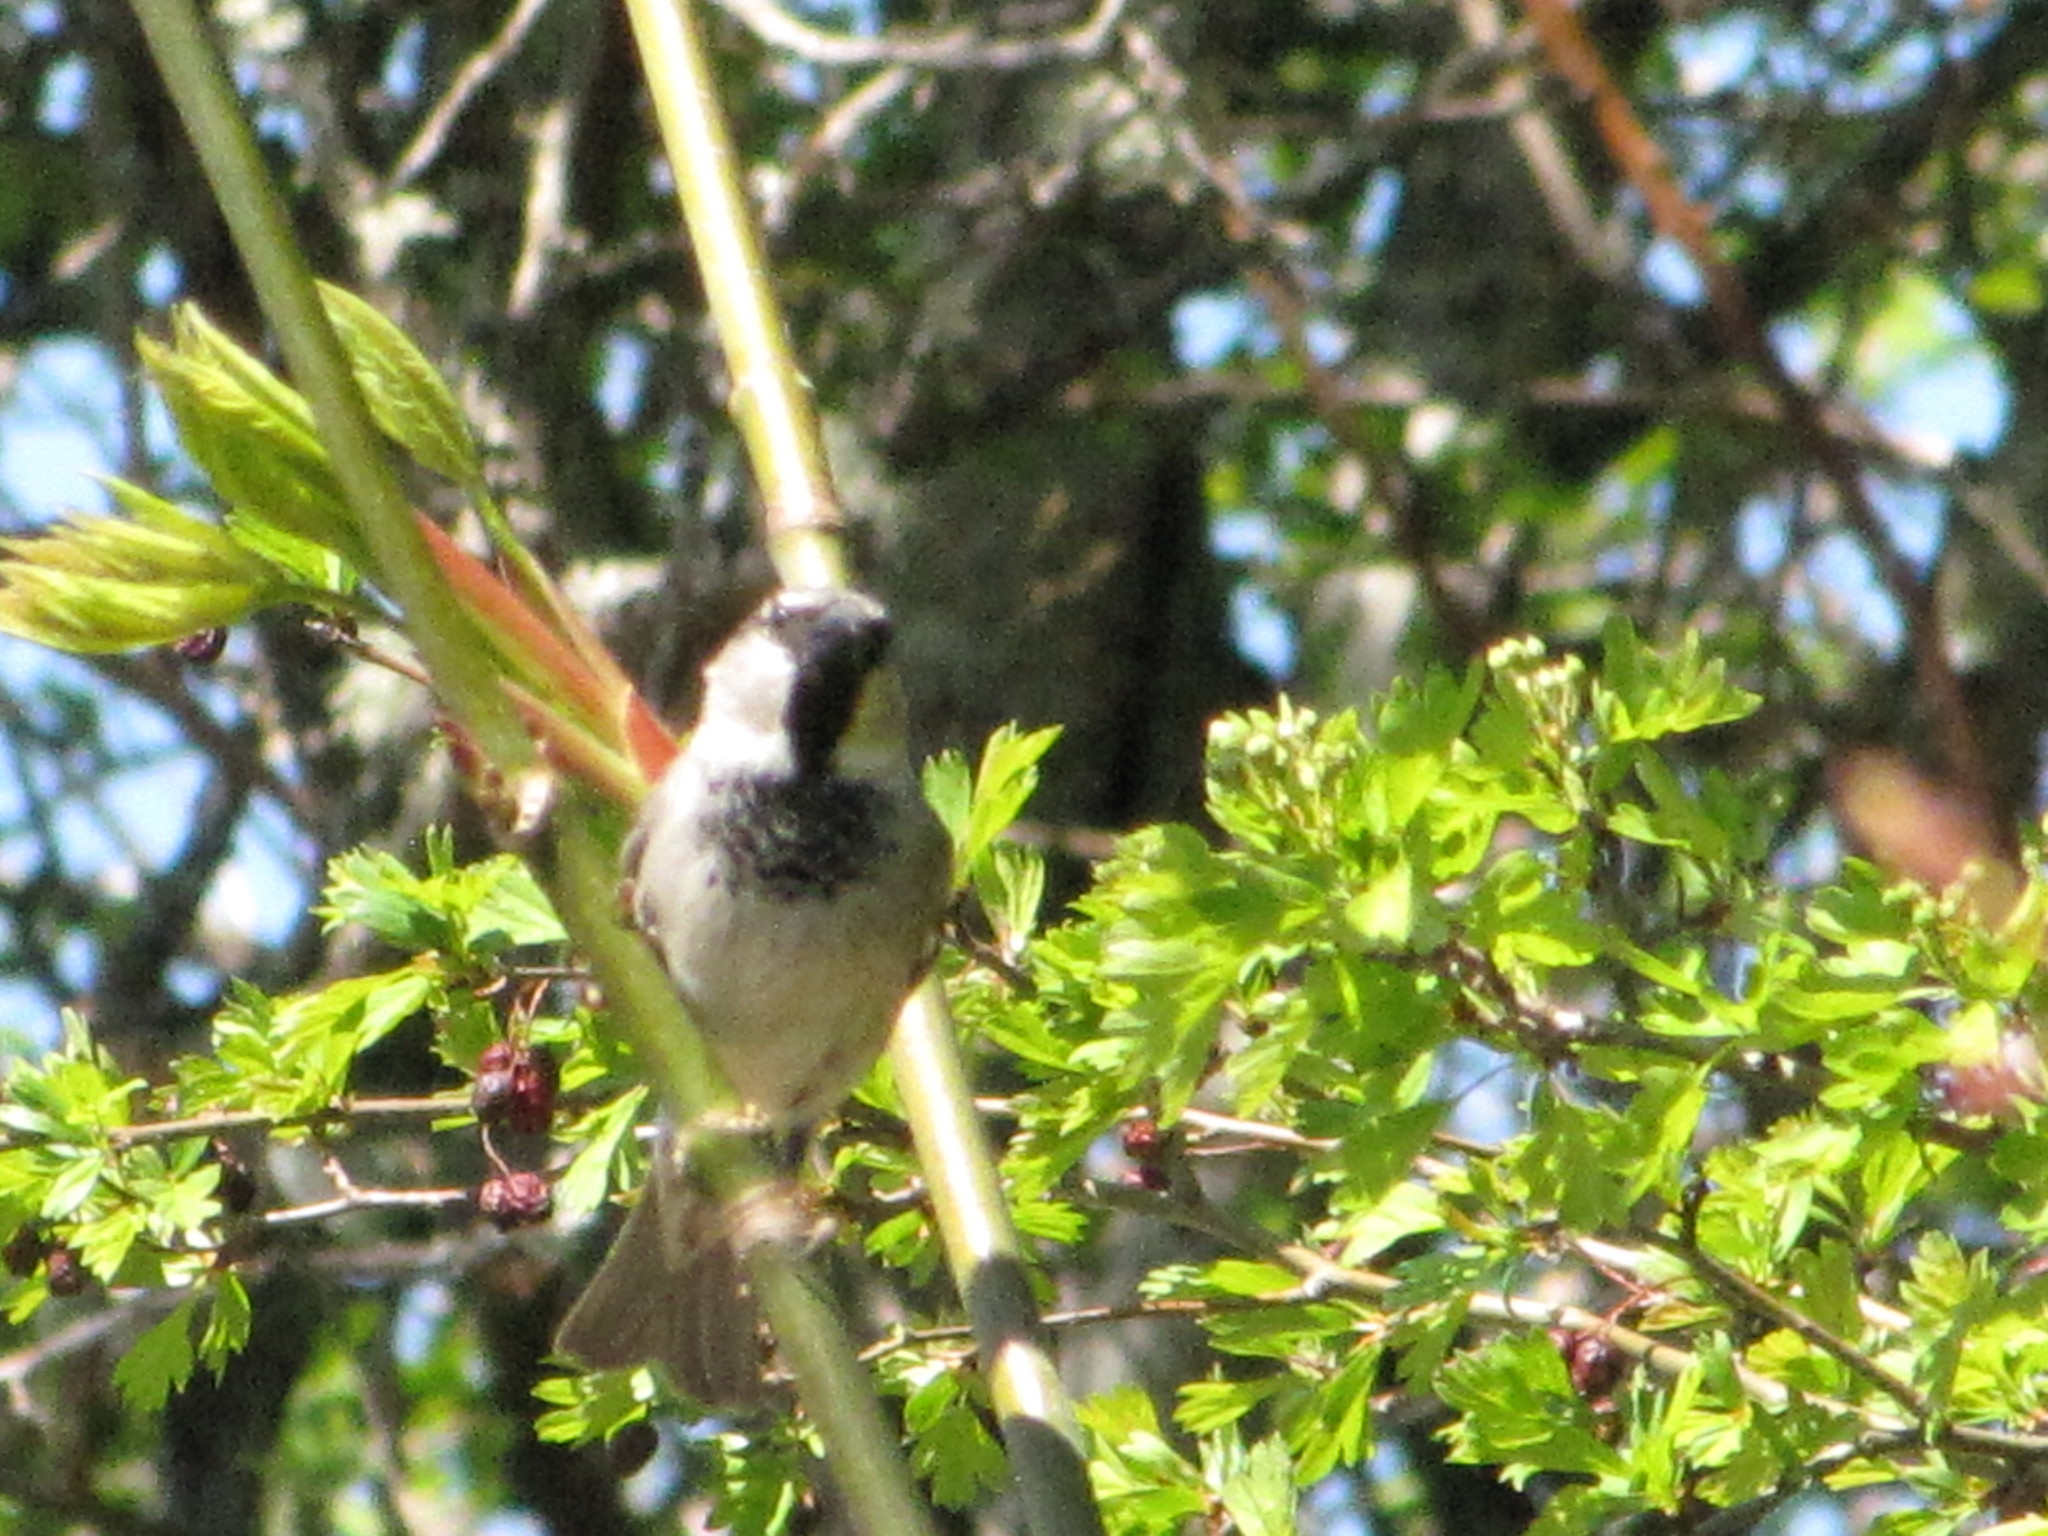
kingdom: Animalia
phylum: Chordata
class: Aves
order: Passeriformes
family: Passeridae
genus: Passer
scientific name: Passer domesticus
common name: House sparrow
